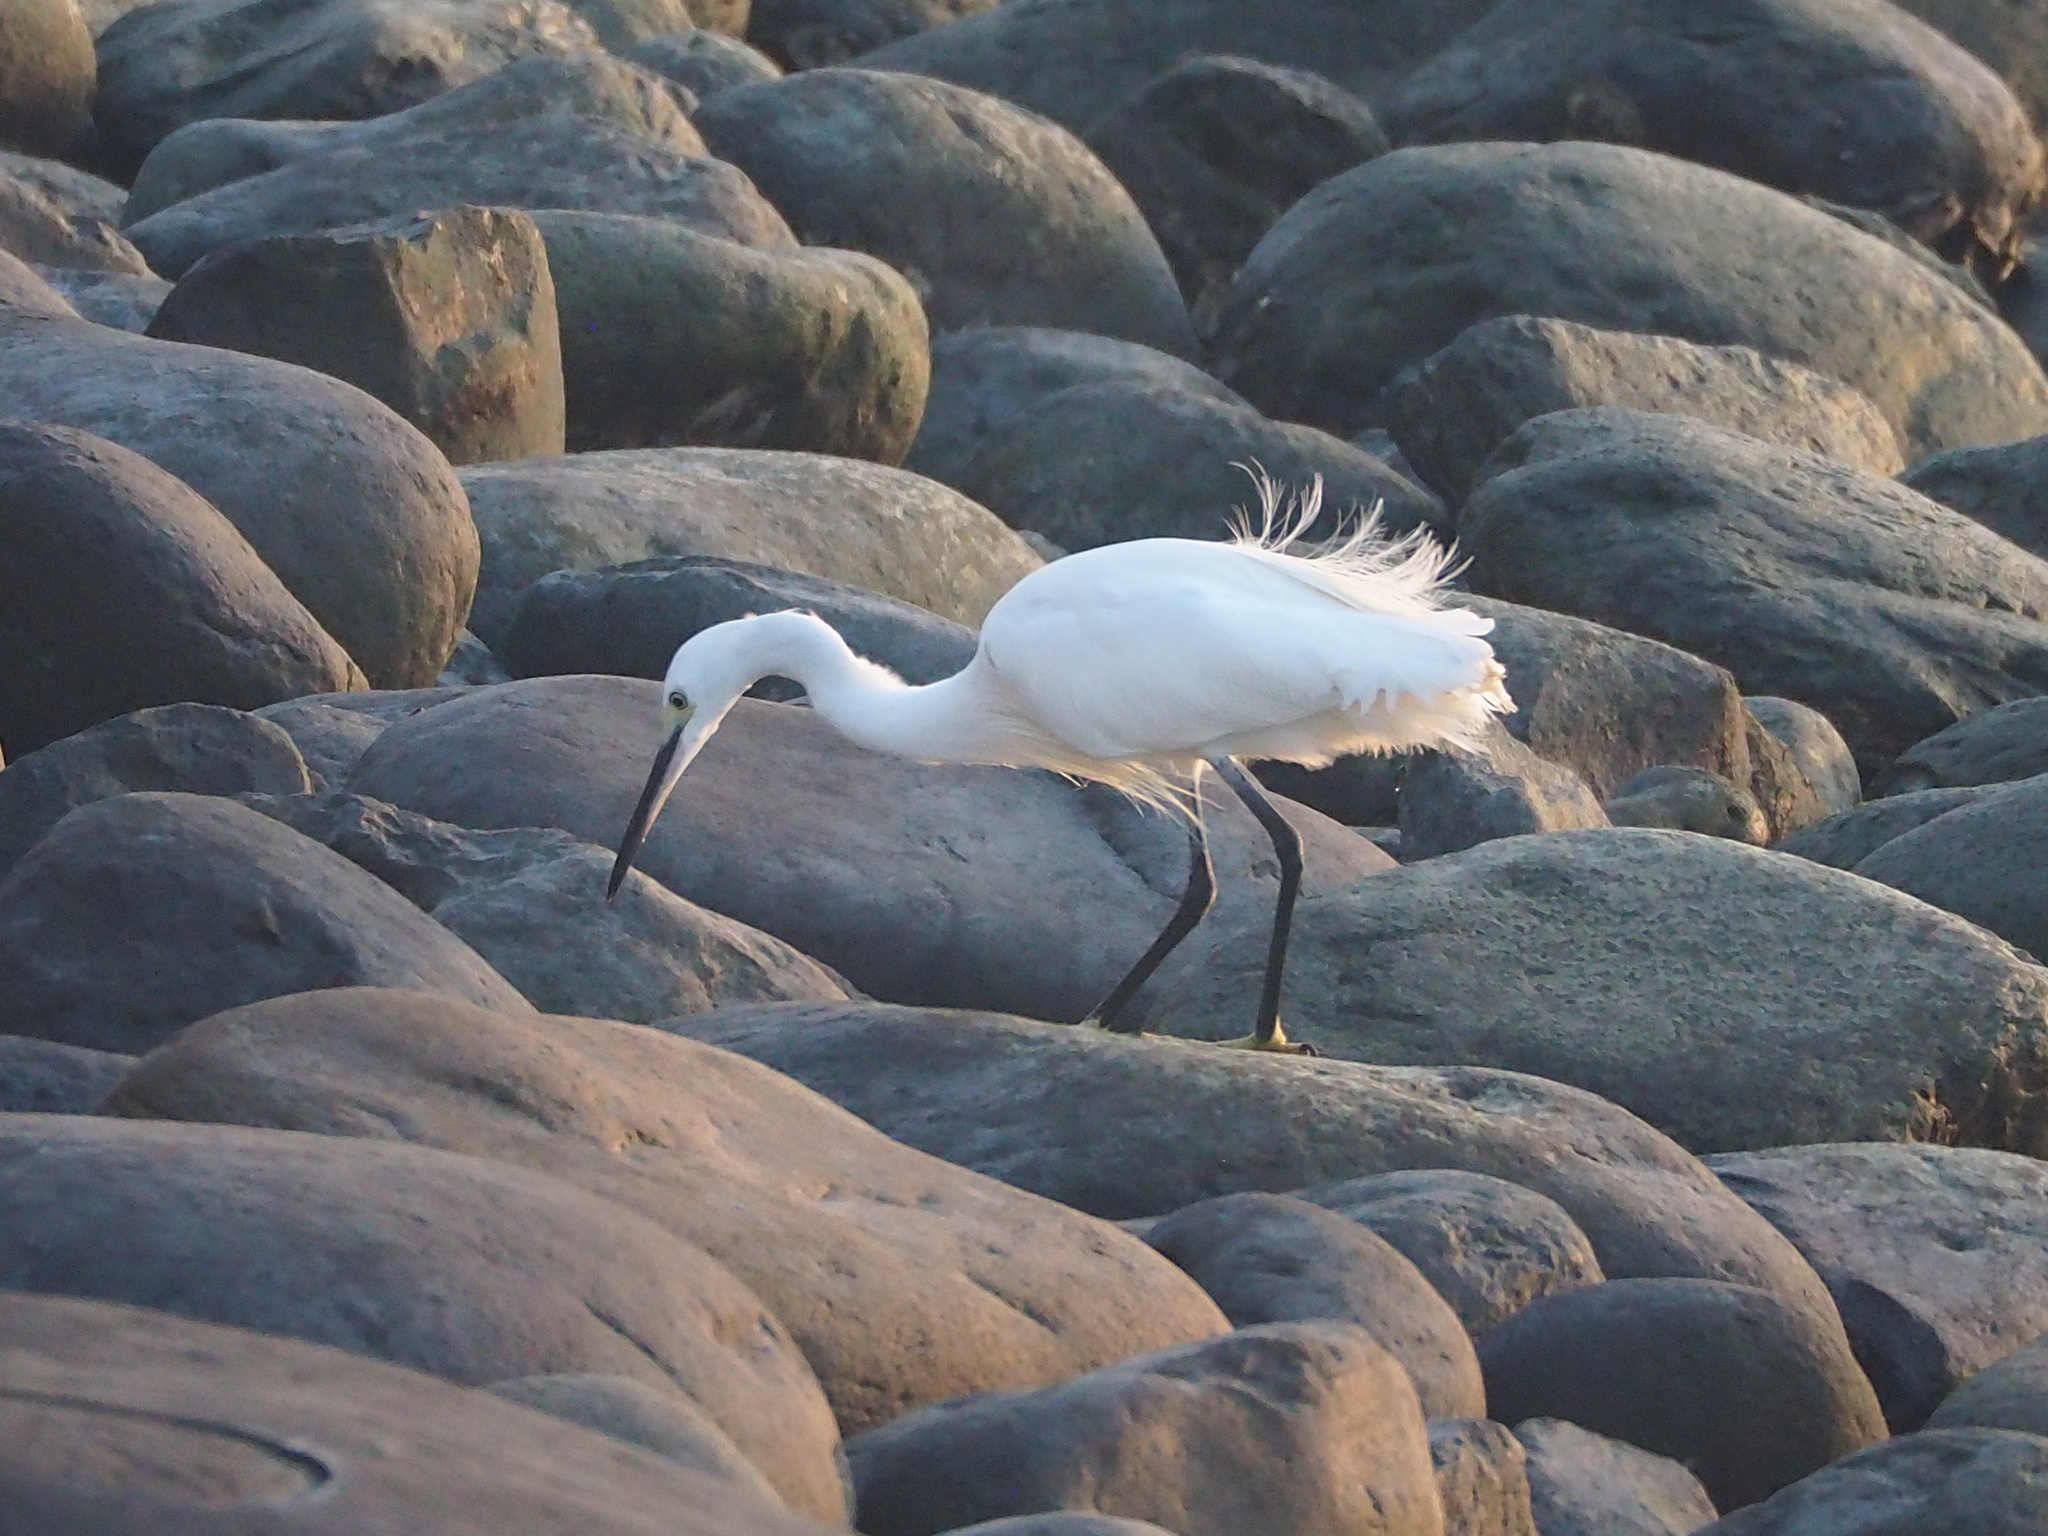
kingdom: Animalia
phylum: Chordata
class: Aves
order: Pelecaniformes
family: Ardeidae
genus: Egretta
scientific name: Egretta garzetta
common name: Little egret
